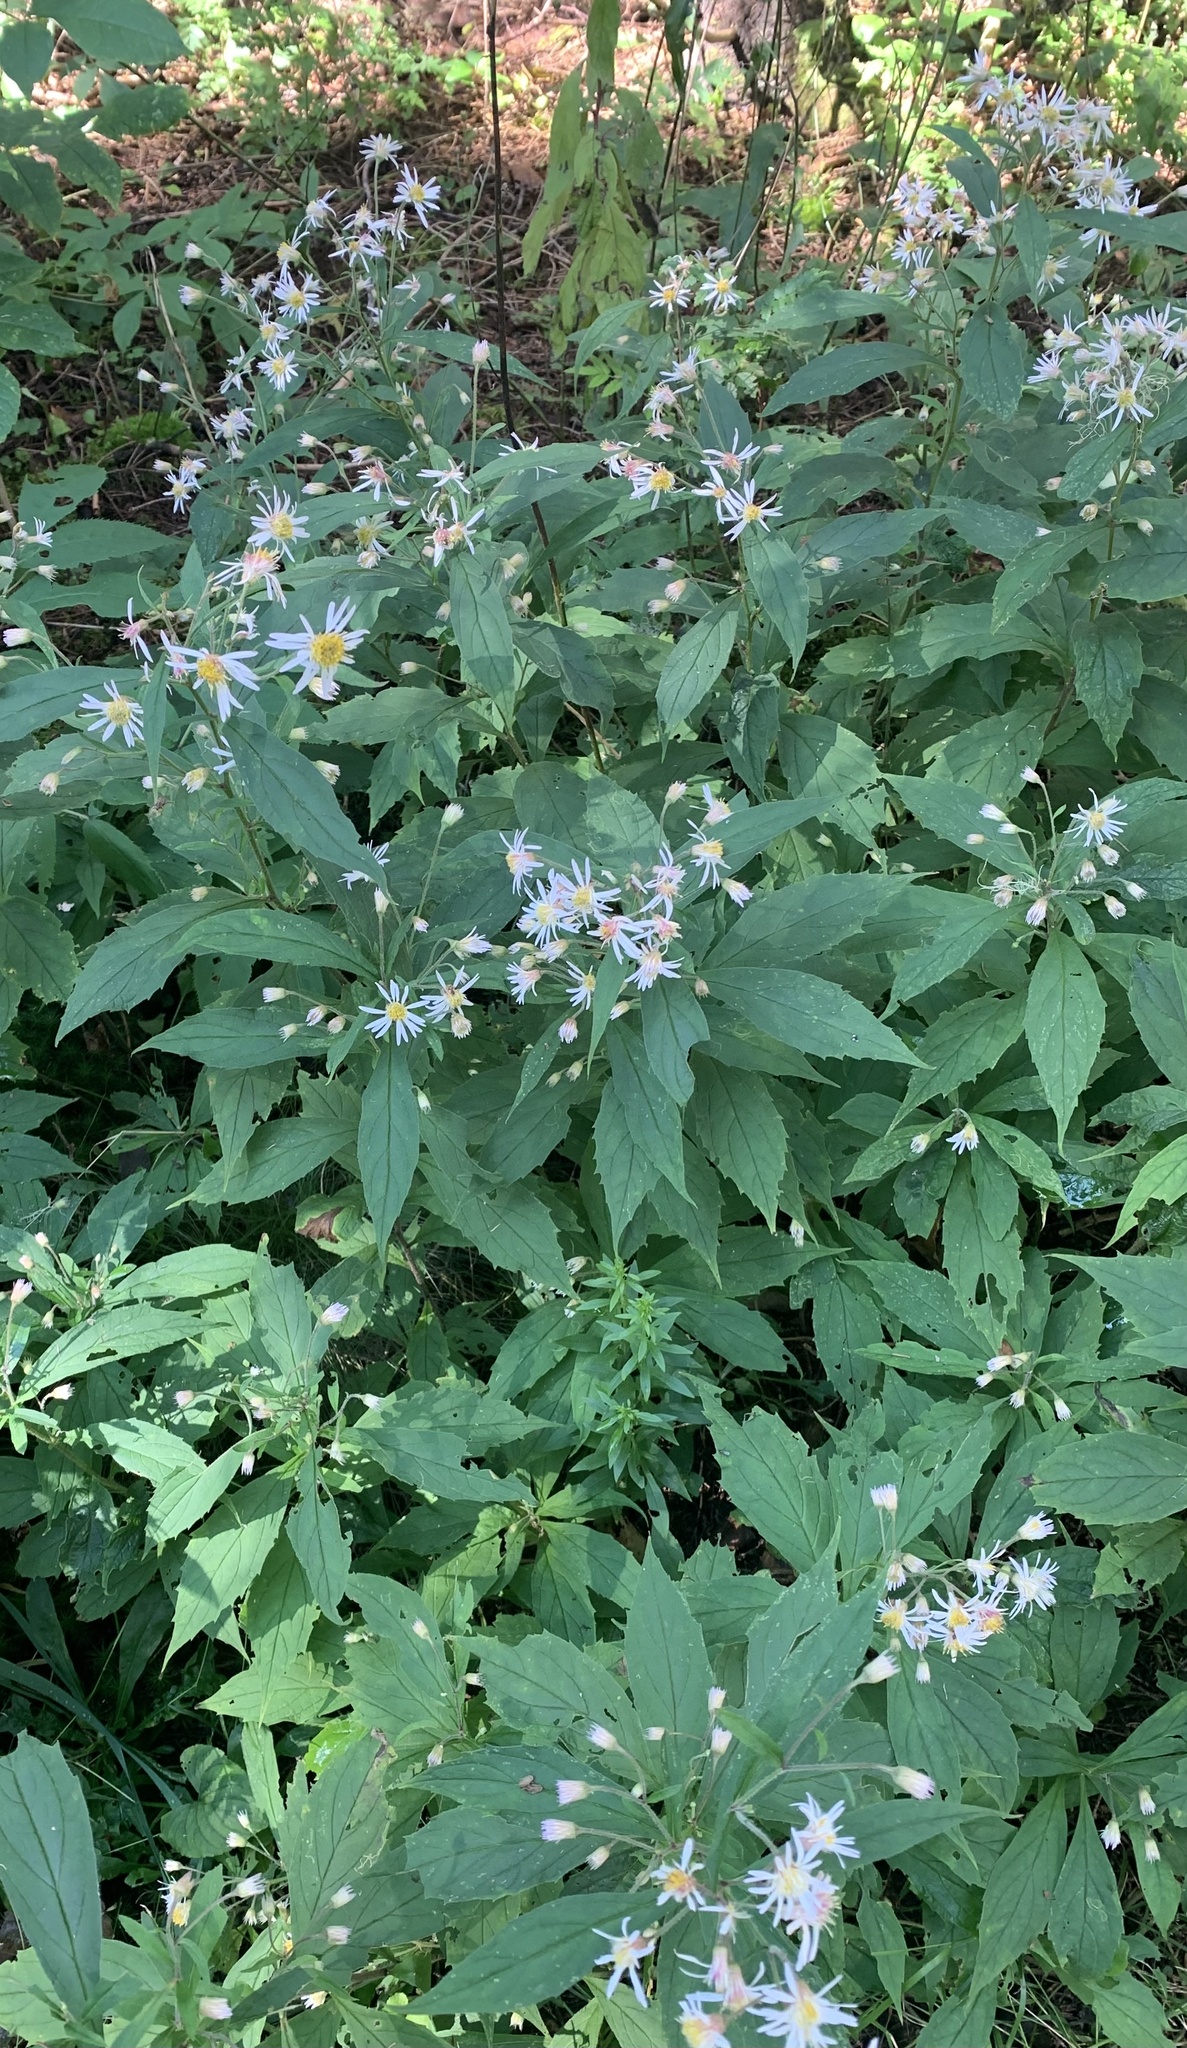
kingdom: Plantae
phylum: Tracheophyta
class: Magnoliopsida
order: Asterales
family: Asteraceae
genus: Oclemena
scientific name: Oclemena acuminata
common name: Mountain aster
